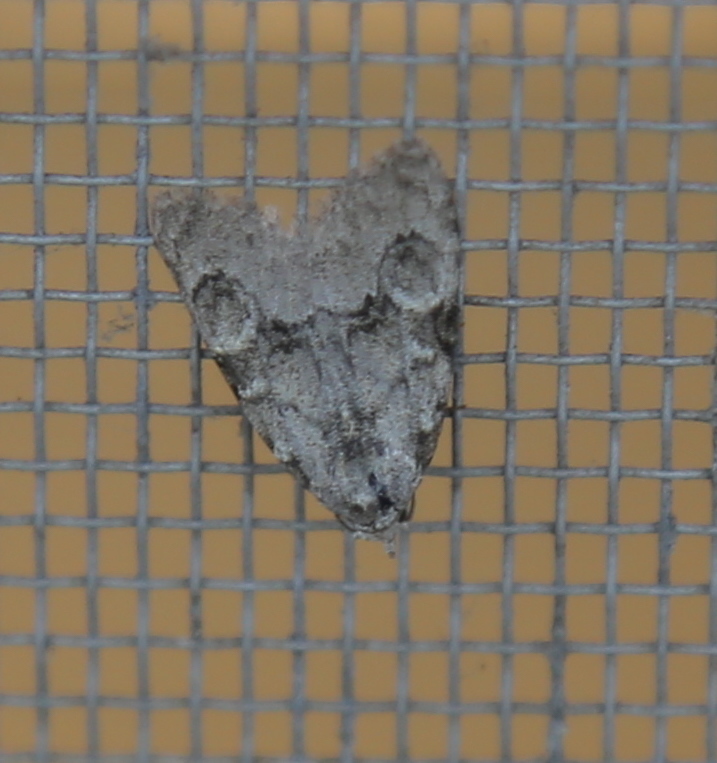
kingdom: Animalia
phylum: Arthropoda
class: Insecta
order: Lepidoptera
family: Nolidae
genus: Meganola
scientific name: Meganola minuscula
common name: Confused meganola moth
